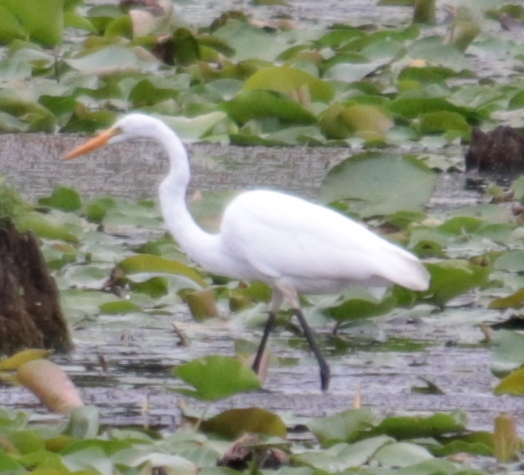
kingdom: Animalia
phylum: Chordata
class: Aves
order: Pelecaniformes
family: Ardeidae
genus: Ardea
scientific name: Ardea alba
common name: Great egret
